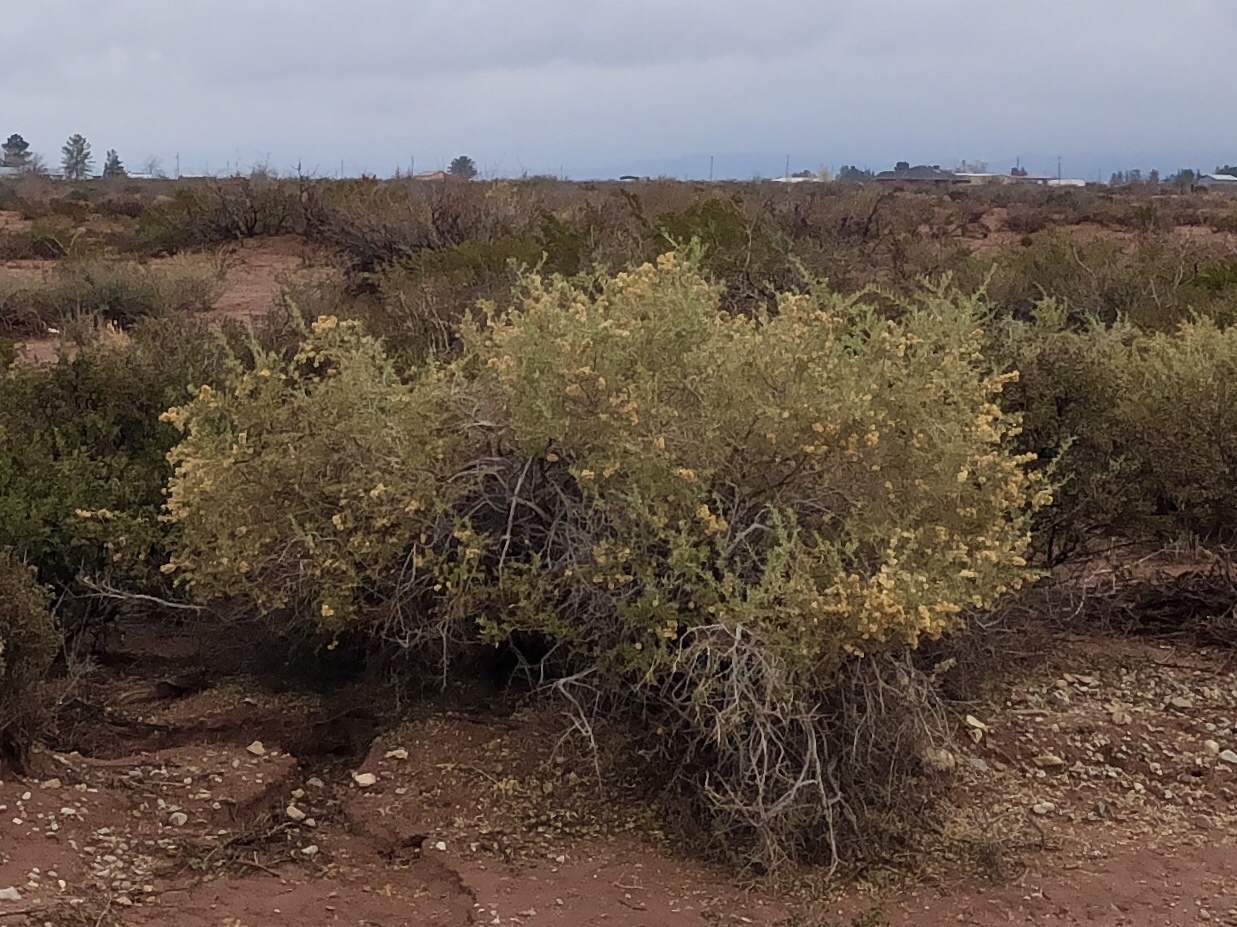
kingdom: Plantae
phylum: Tracheophyta
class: Magnoliopsida
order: Caryophyllales
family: Amaranthaceae
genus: Atriplex
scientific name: Atriplex canescens
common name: Four-wing saltbush
